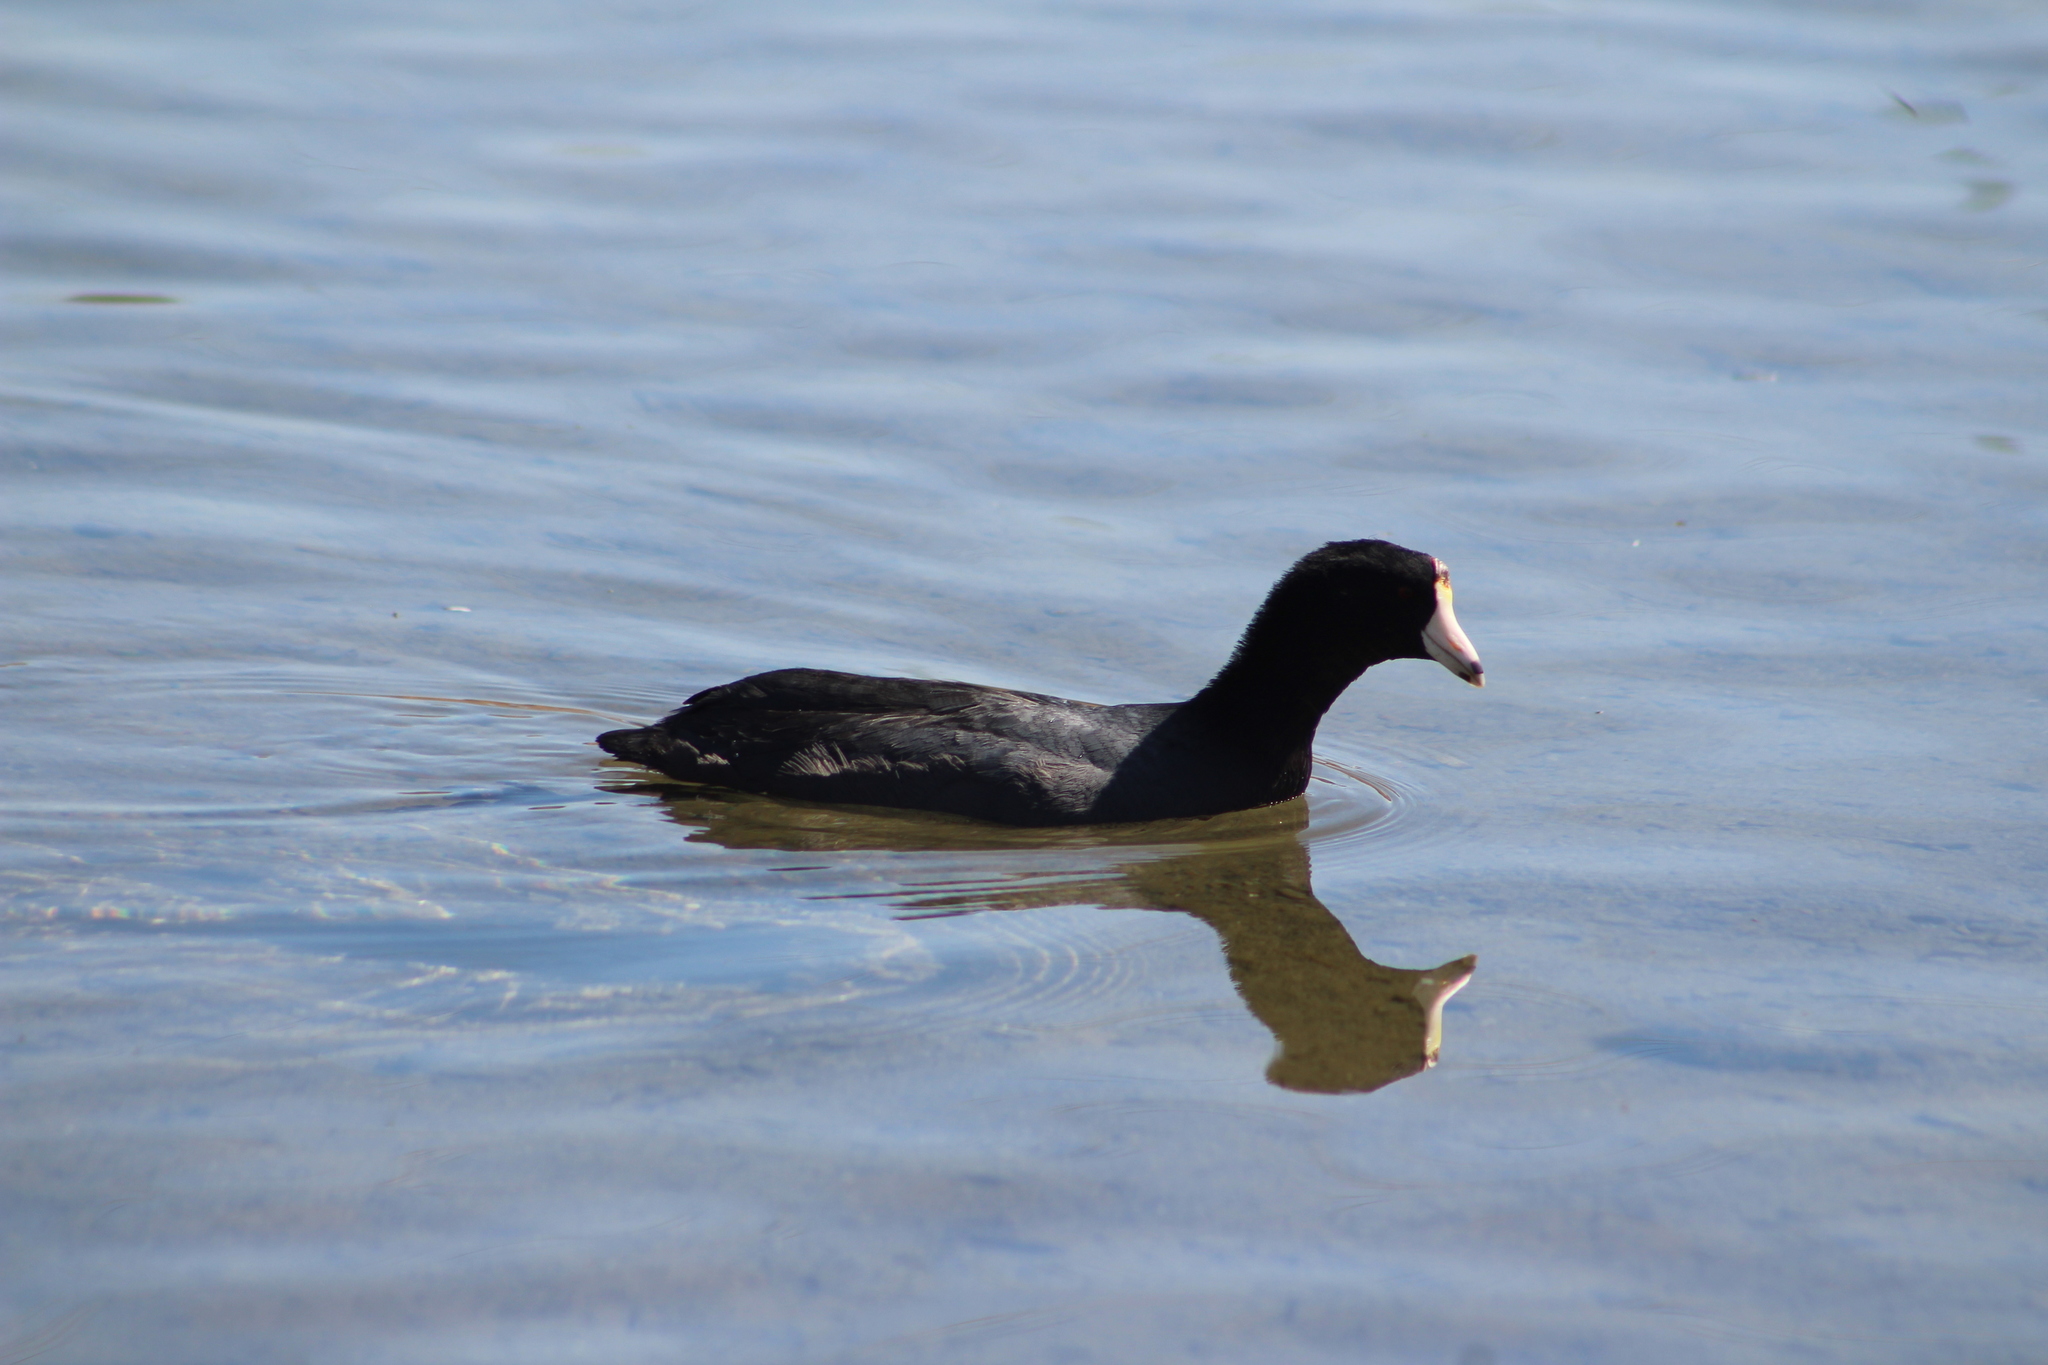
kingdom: Animalia
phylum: Chordata
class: Aves
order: Gruiformes
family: Rallidae
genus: Fulica
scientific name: Fulica americana
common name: American coot
